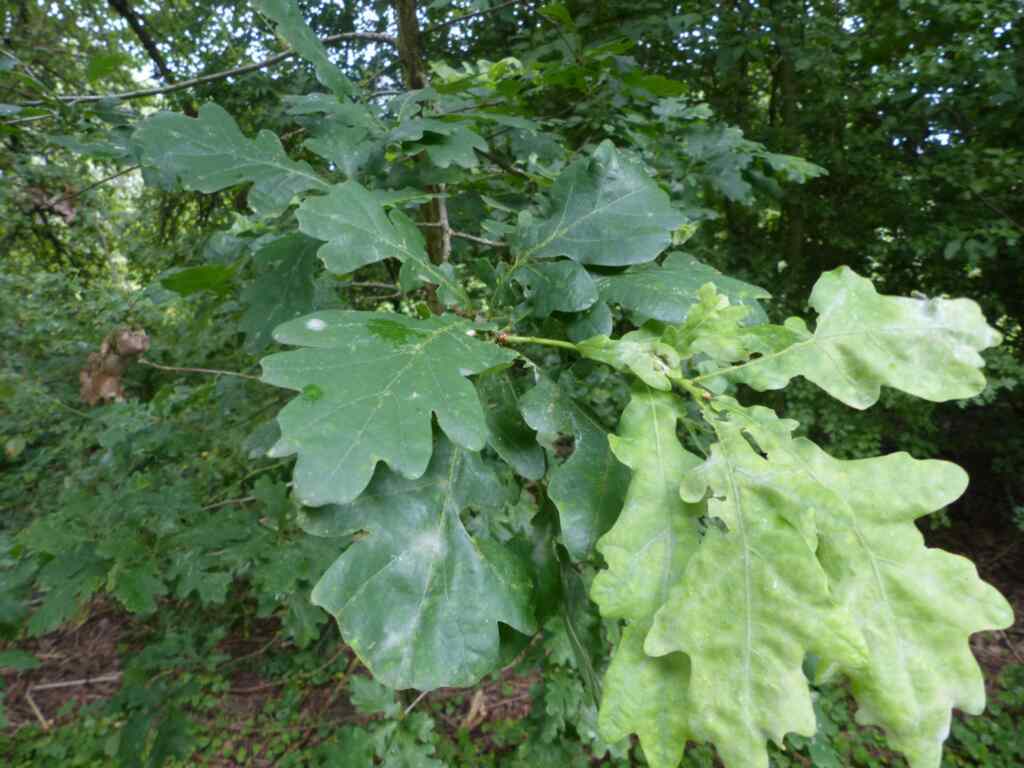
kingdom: Plantae
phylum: Tracheophyta
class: Magnoliopsida
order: Fagales
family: Fagaceae
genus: Quercus
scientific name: Quercus robur
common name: Pedunculate oak
